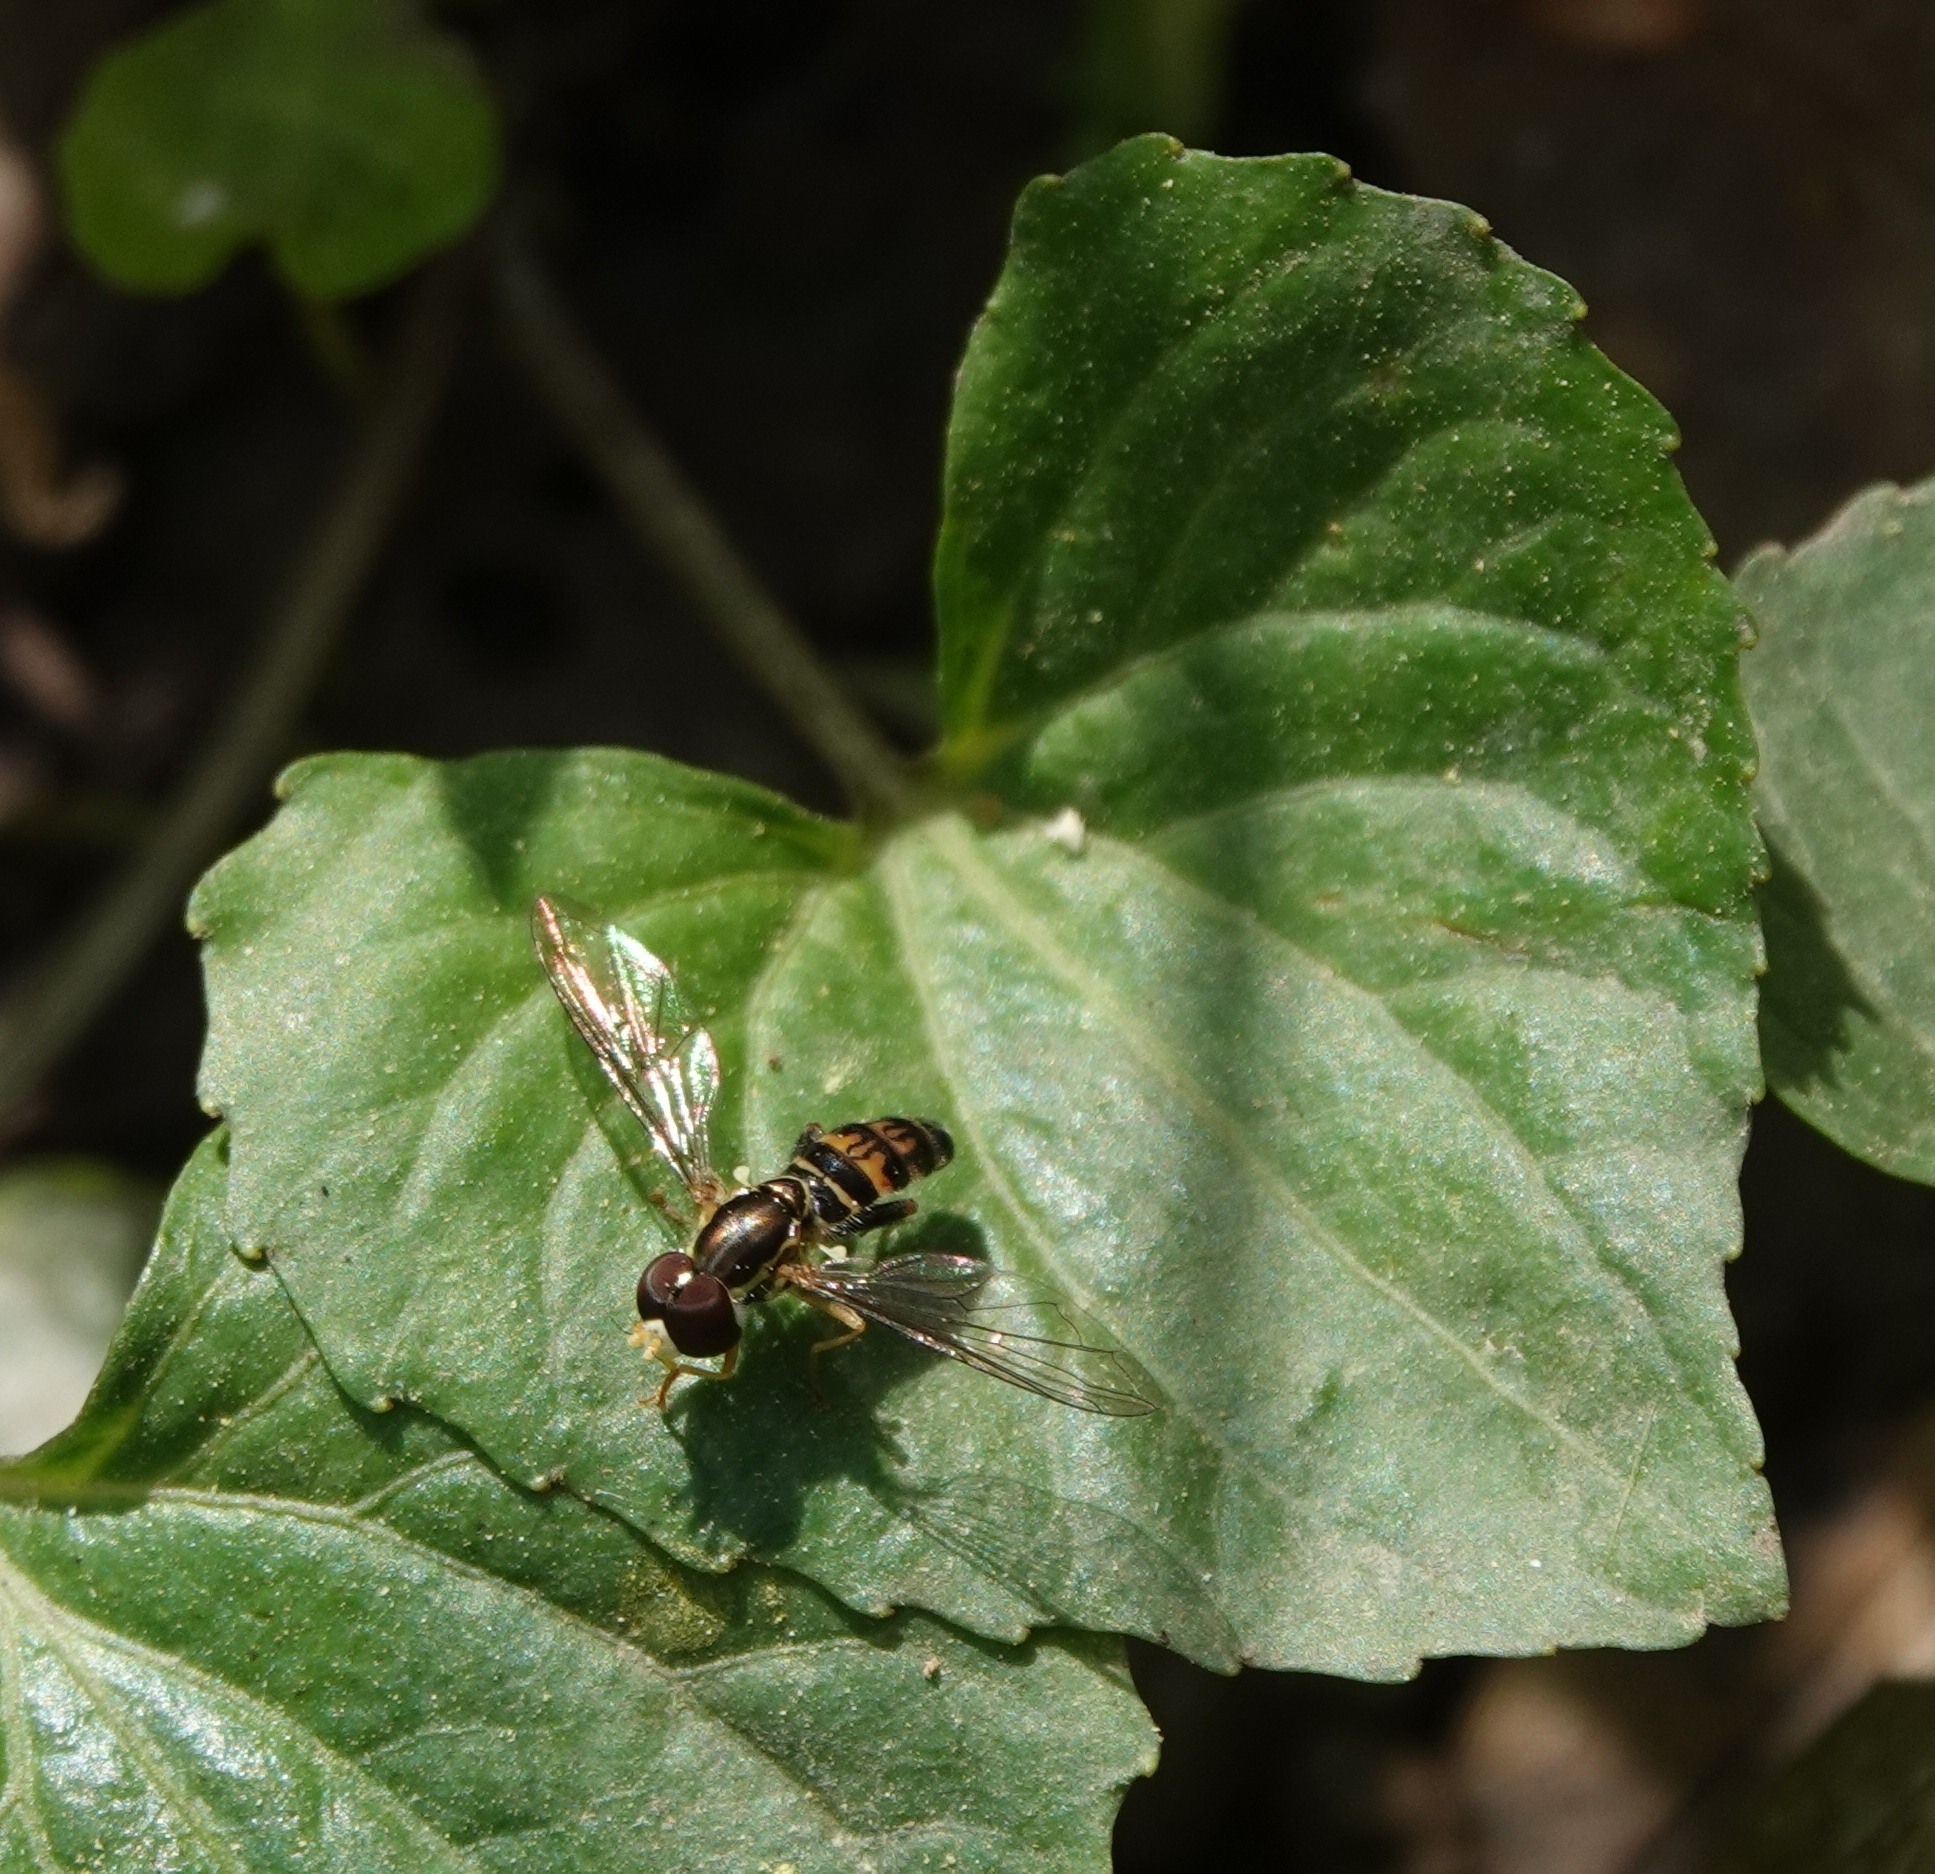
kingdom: Animalia
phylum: Arthropoda
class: Insecta
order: Diptera
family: Syrphidae
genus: Toxomerus
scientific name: Toxomerus geminatus
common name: Eastern calligrapher
